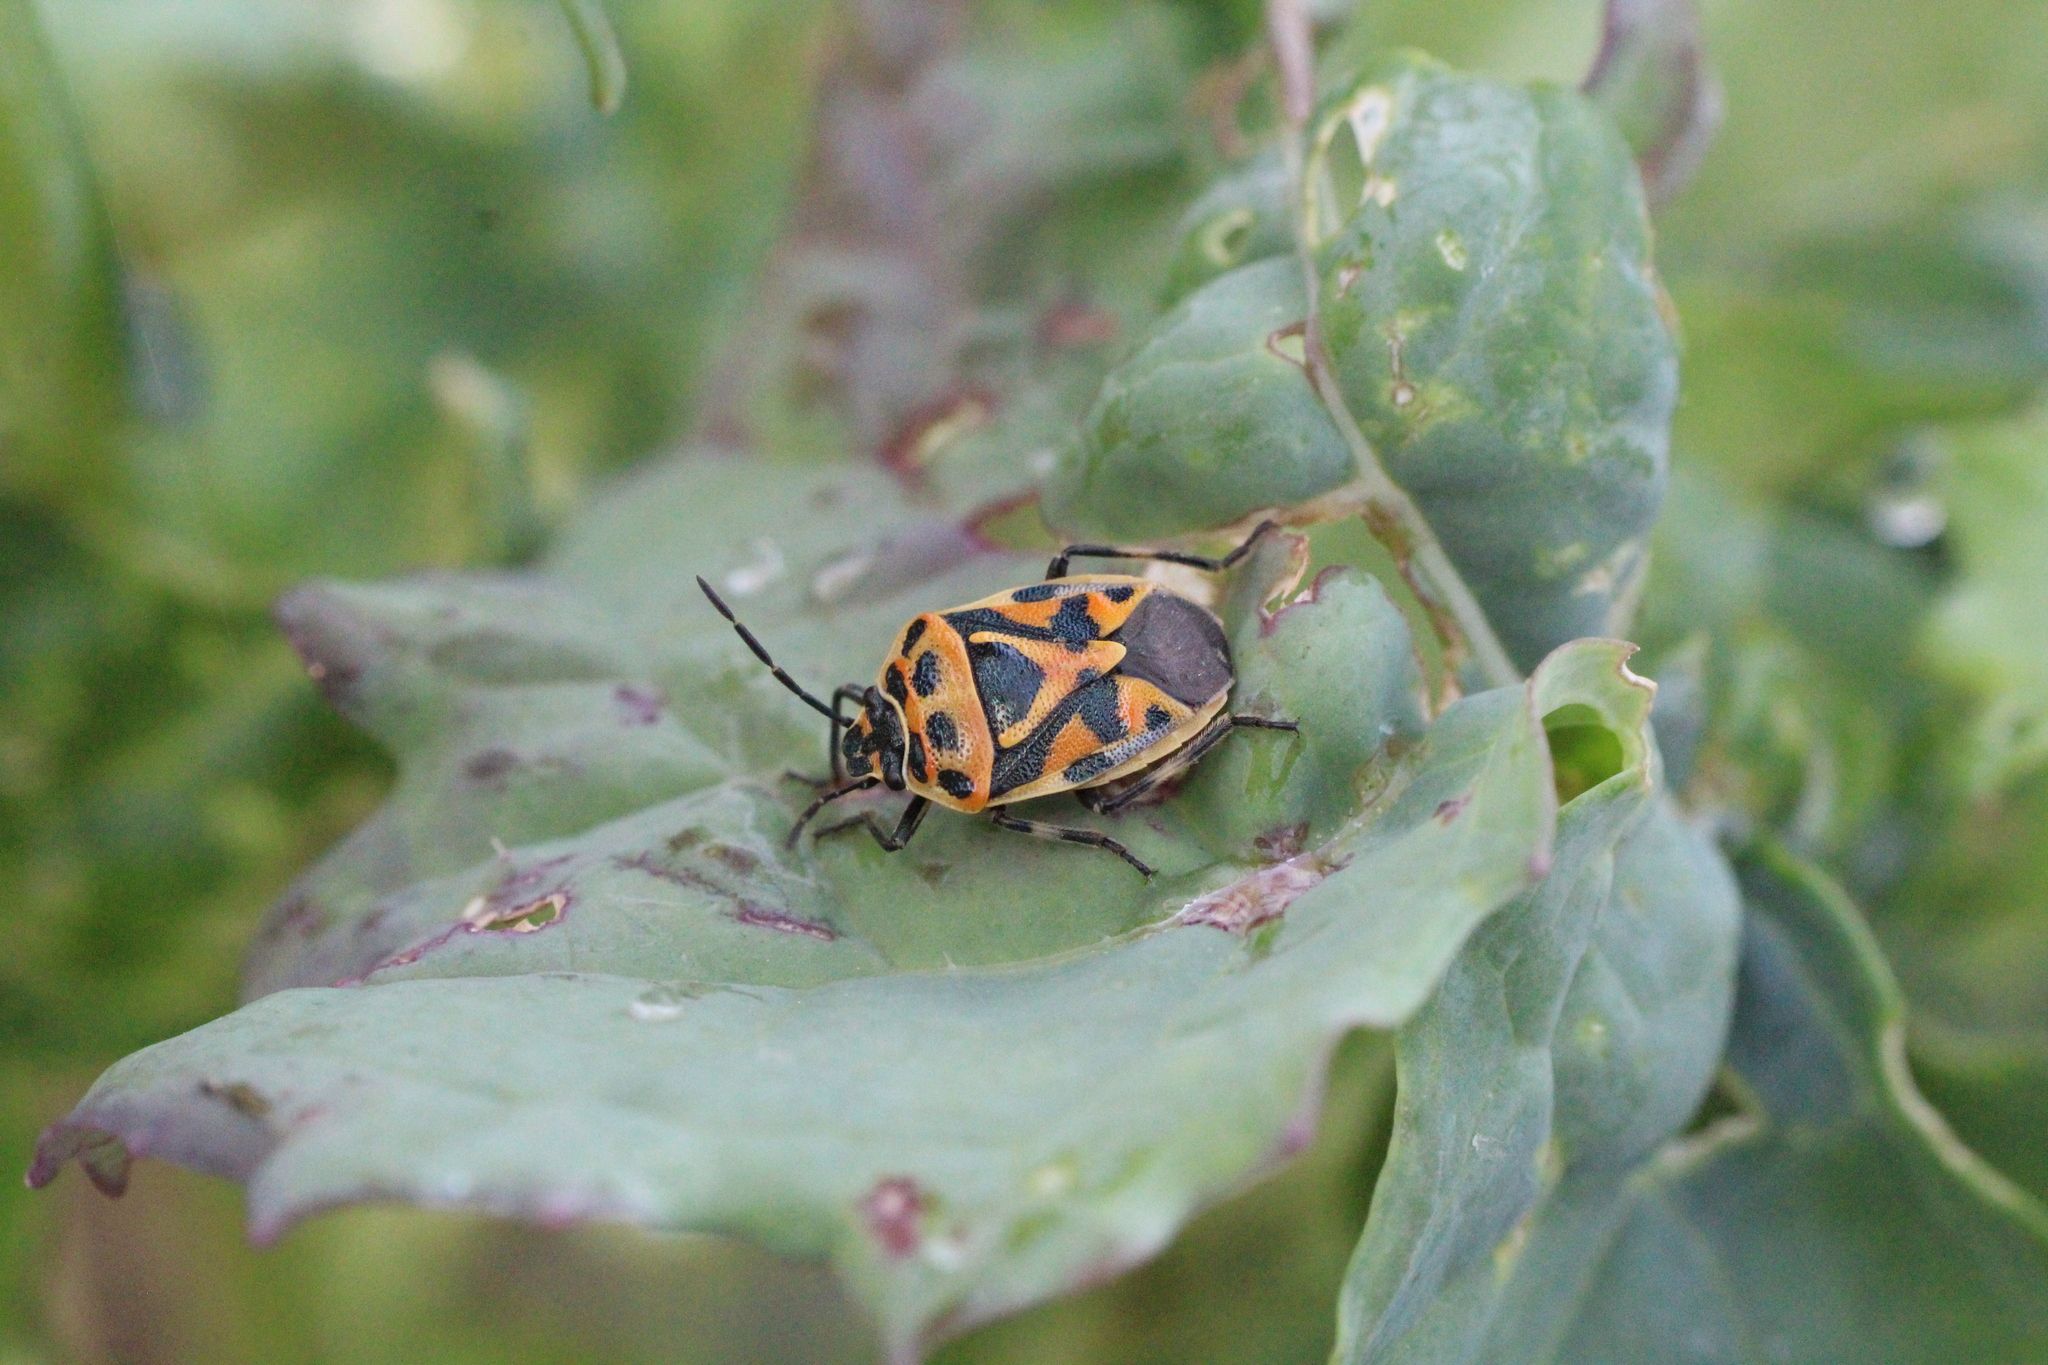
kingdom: Animalia
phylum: Arthropoda
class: Insecta
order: Hemiptera
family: Pentatomidae
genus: Eurydema
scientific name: Eurydema ornata
